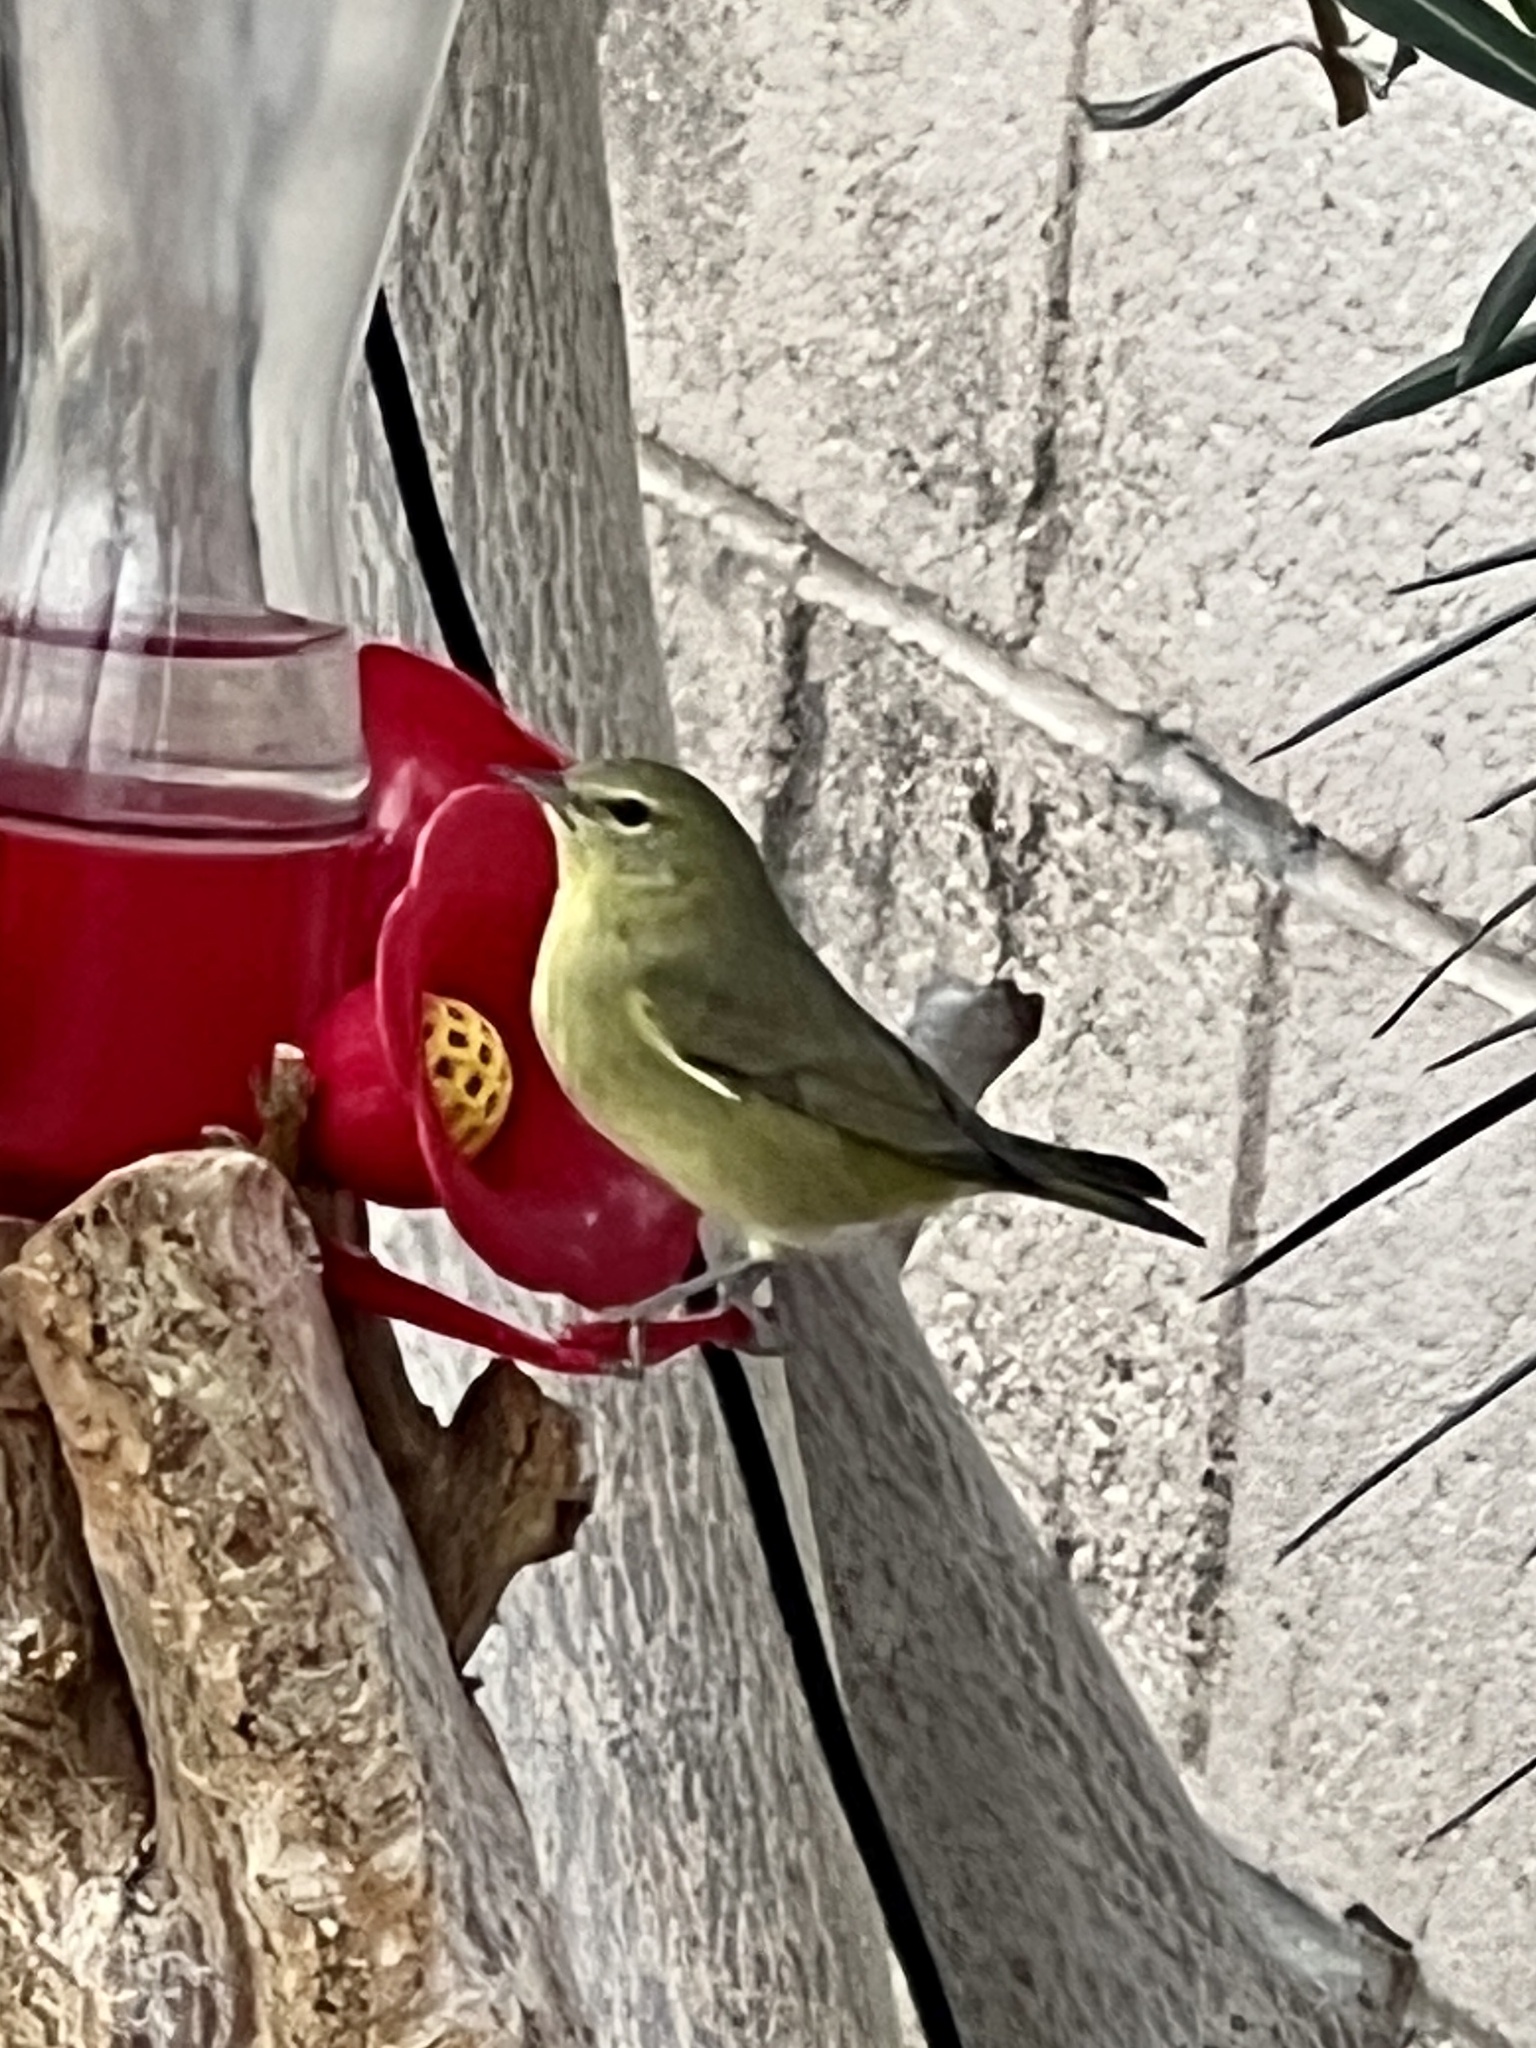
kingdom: Animalia
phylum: Chordata
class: Aves
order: Passeriformes
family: Parulidae
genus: Leiothlypis
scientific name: Leiothlypis celata
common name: Orange-crowned warbler
